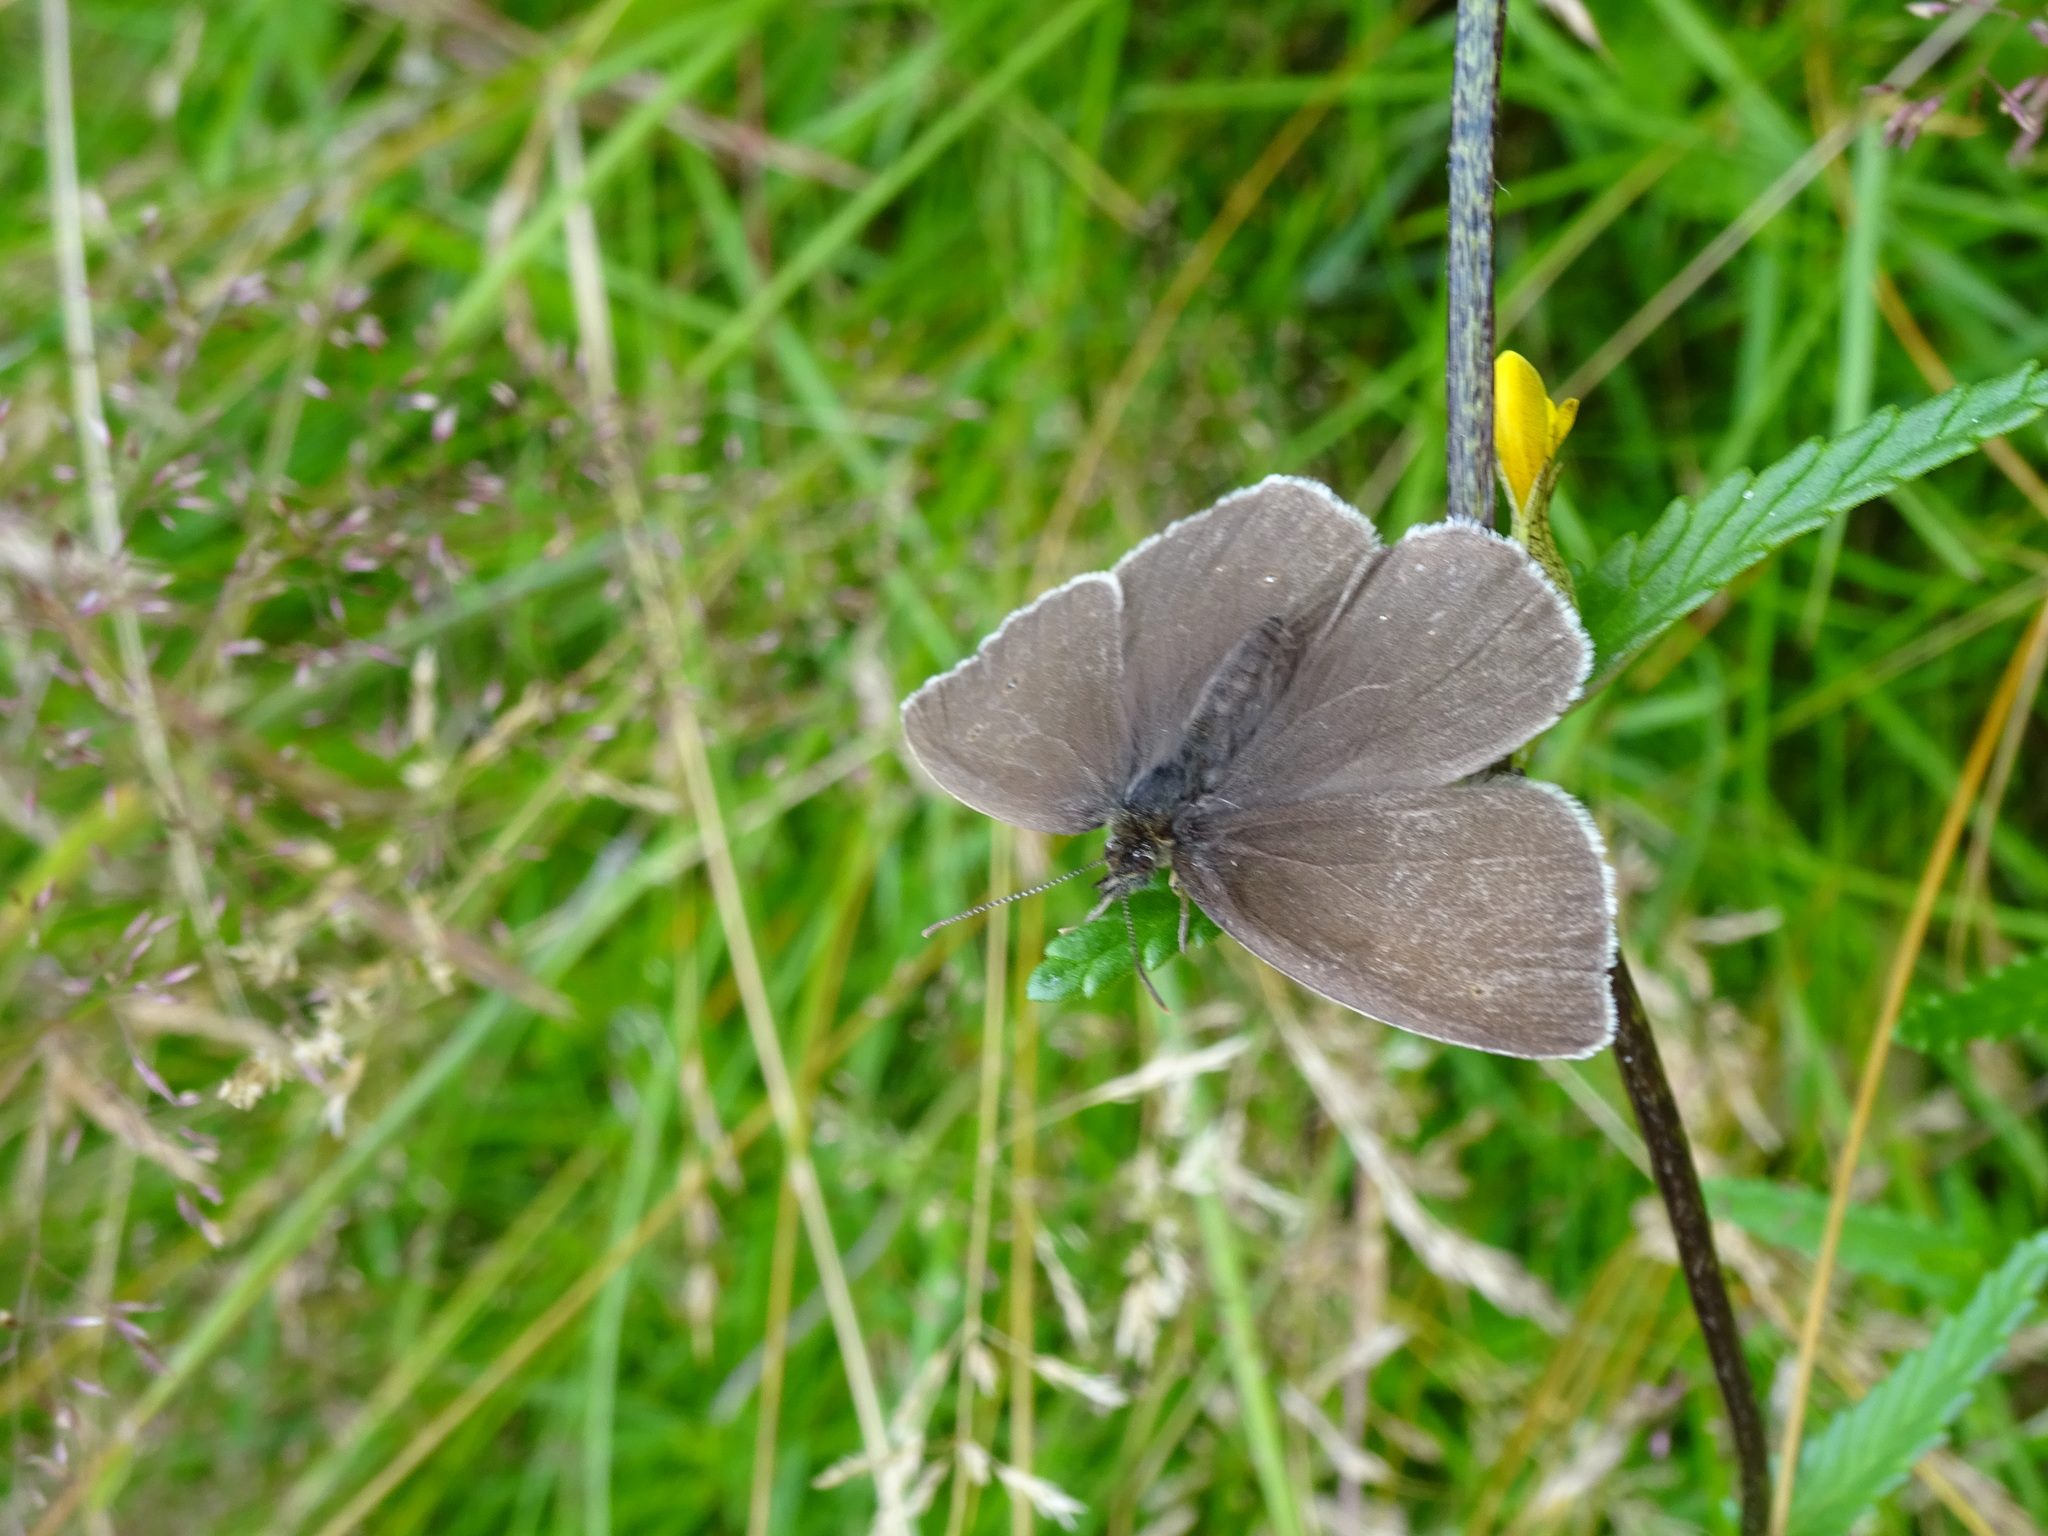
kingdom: Animalia
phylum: Arthropoda
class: Insecta
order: Lepidoptera
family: Nymphalidae
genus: Aphantopus
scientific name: Aphantopus hyperantus
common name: Ringlet
